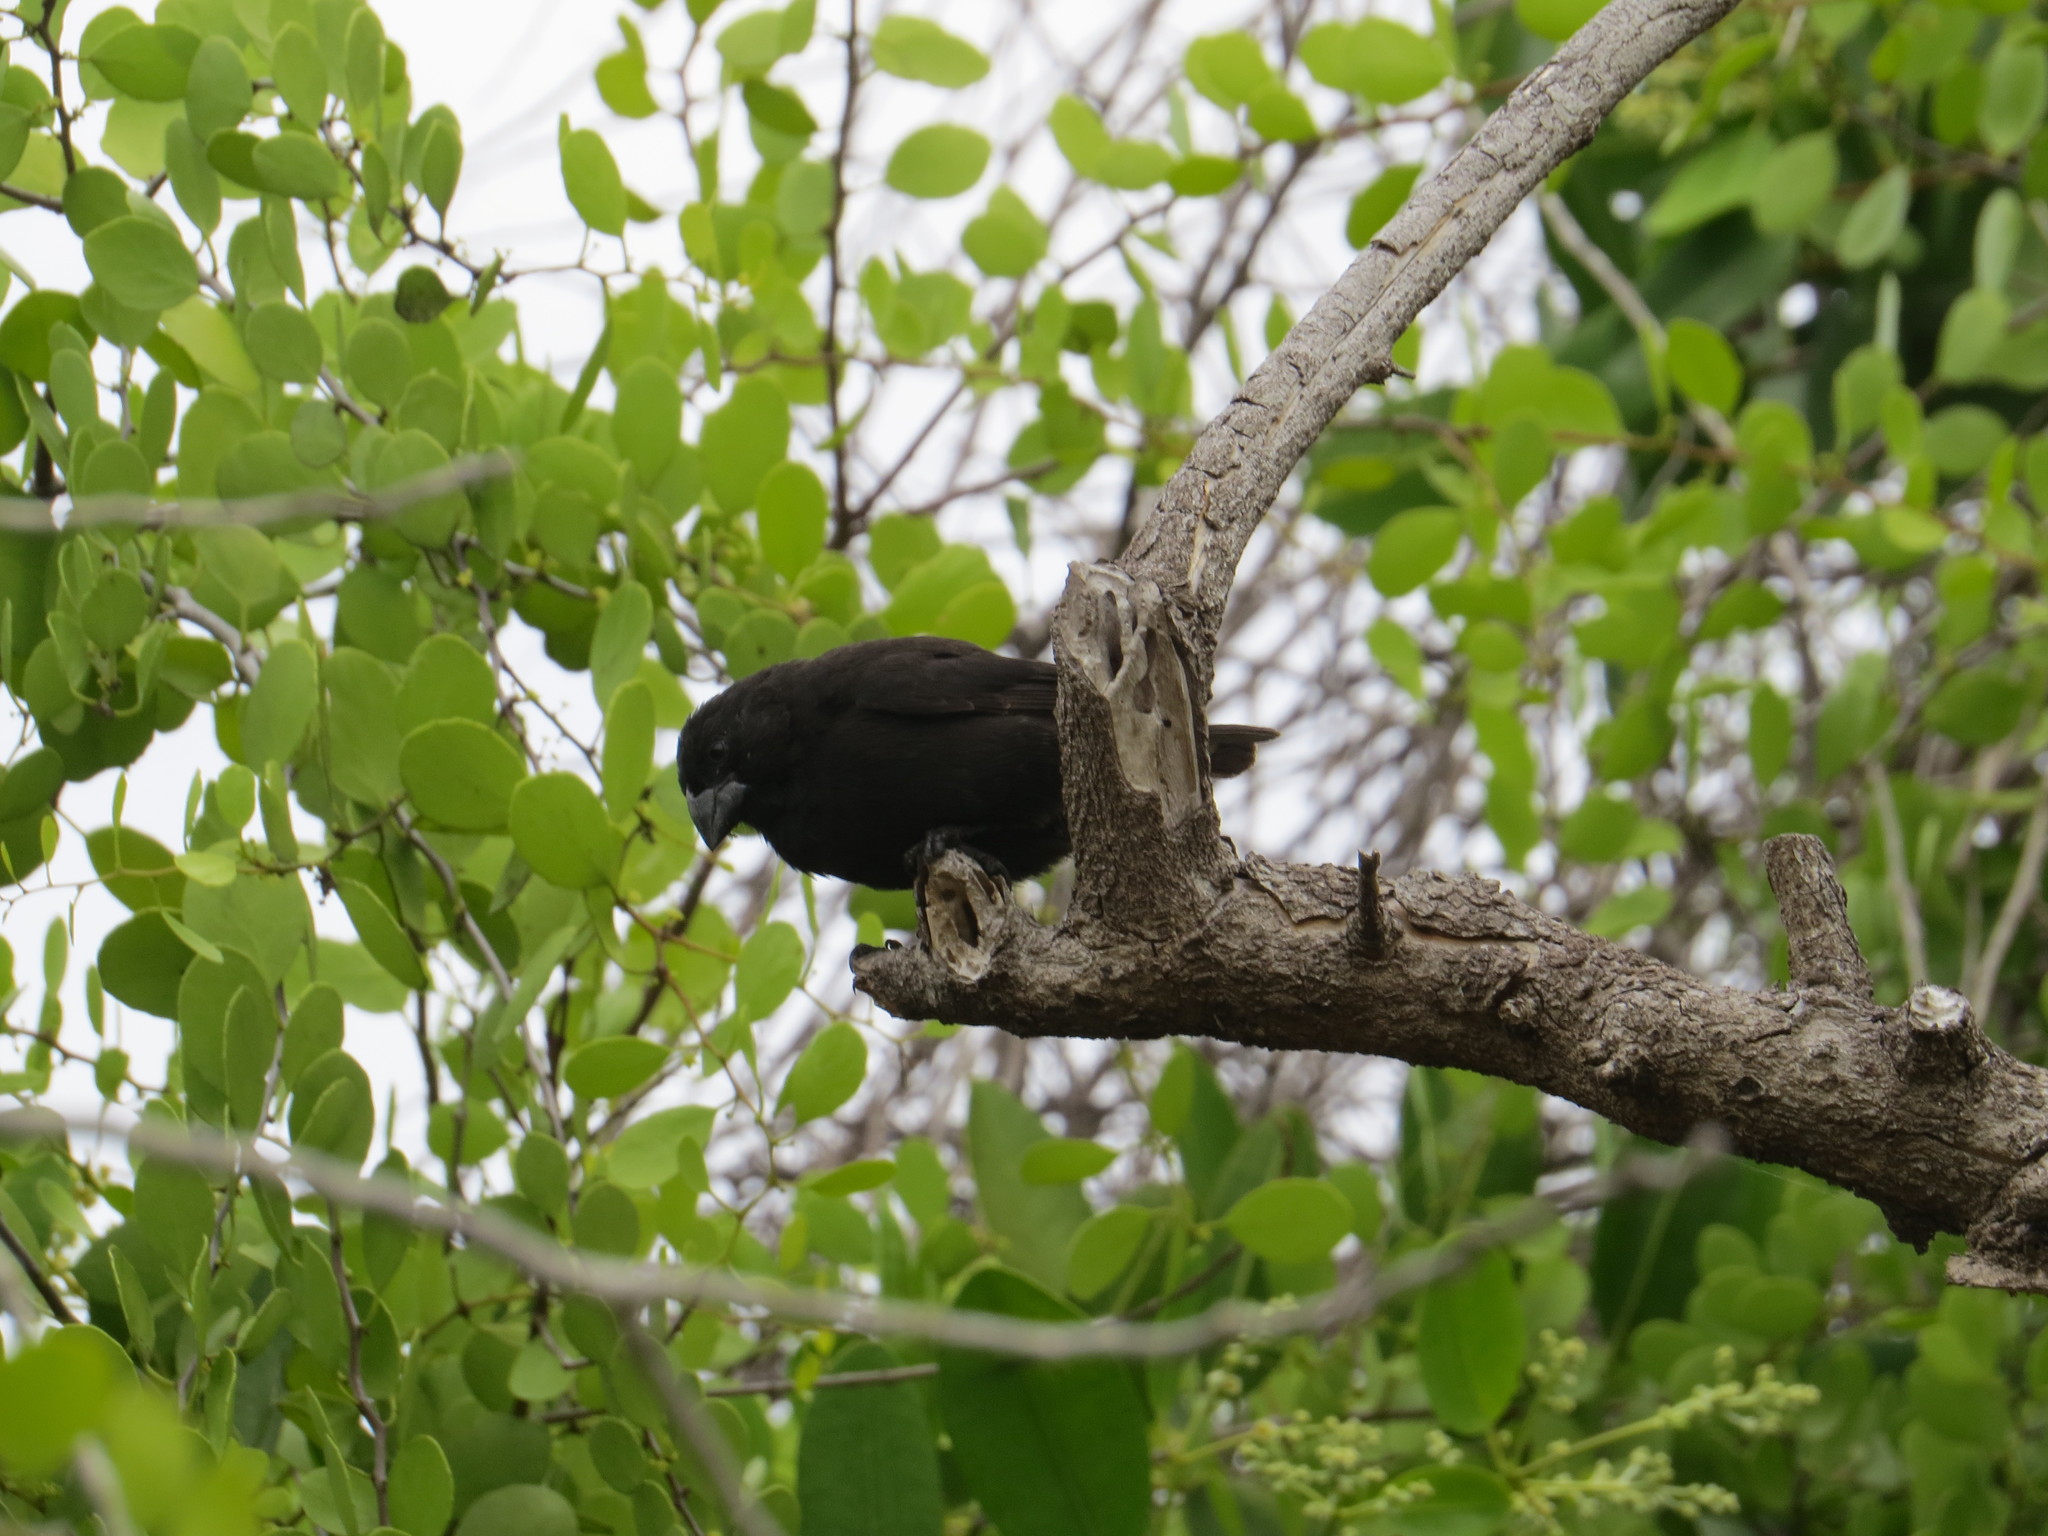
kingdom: Animalia
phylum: Chordata
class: Aves
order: Passeriformes
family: Thraupidae
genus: Geospiza
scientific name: Geospiza fortis
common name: Medium ground finch
